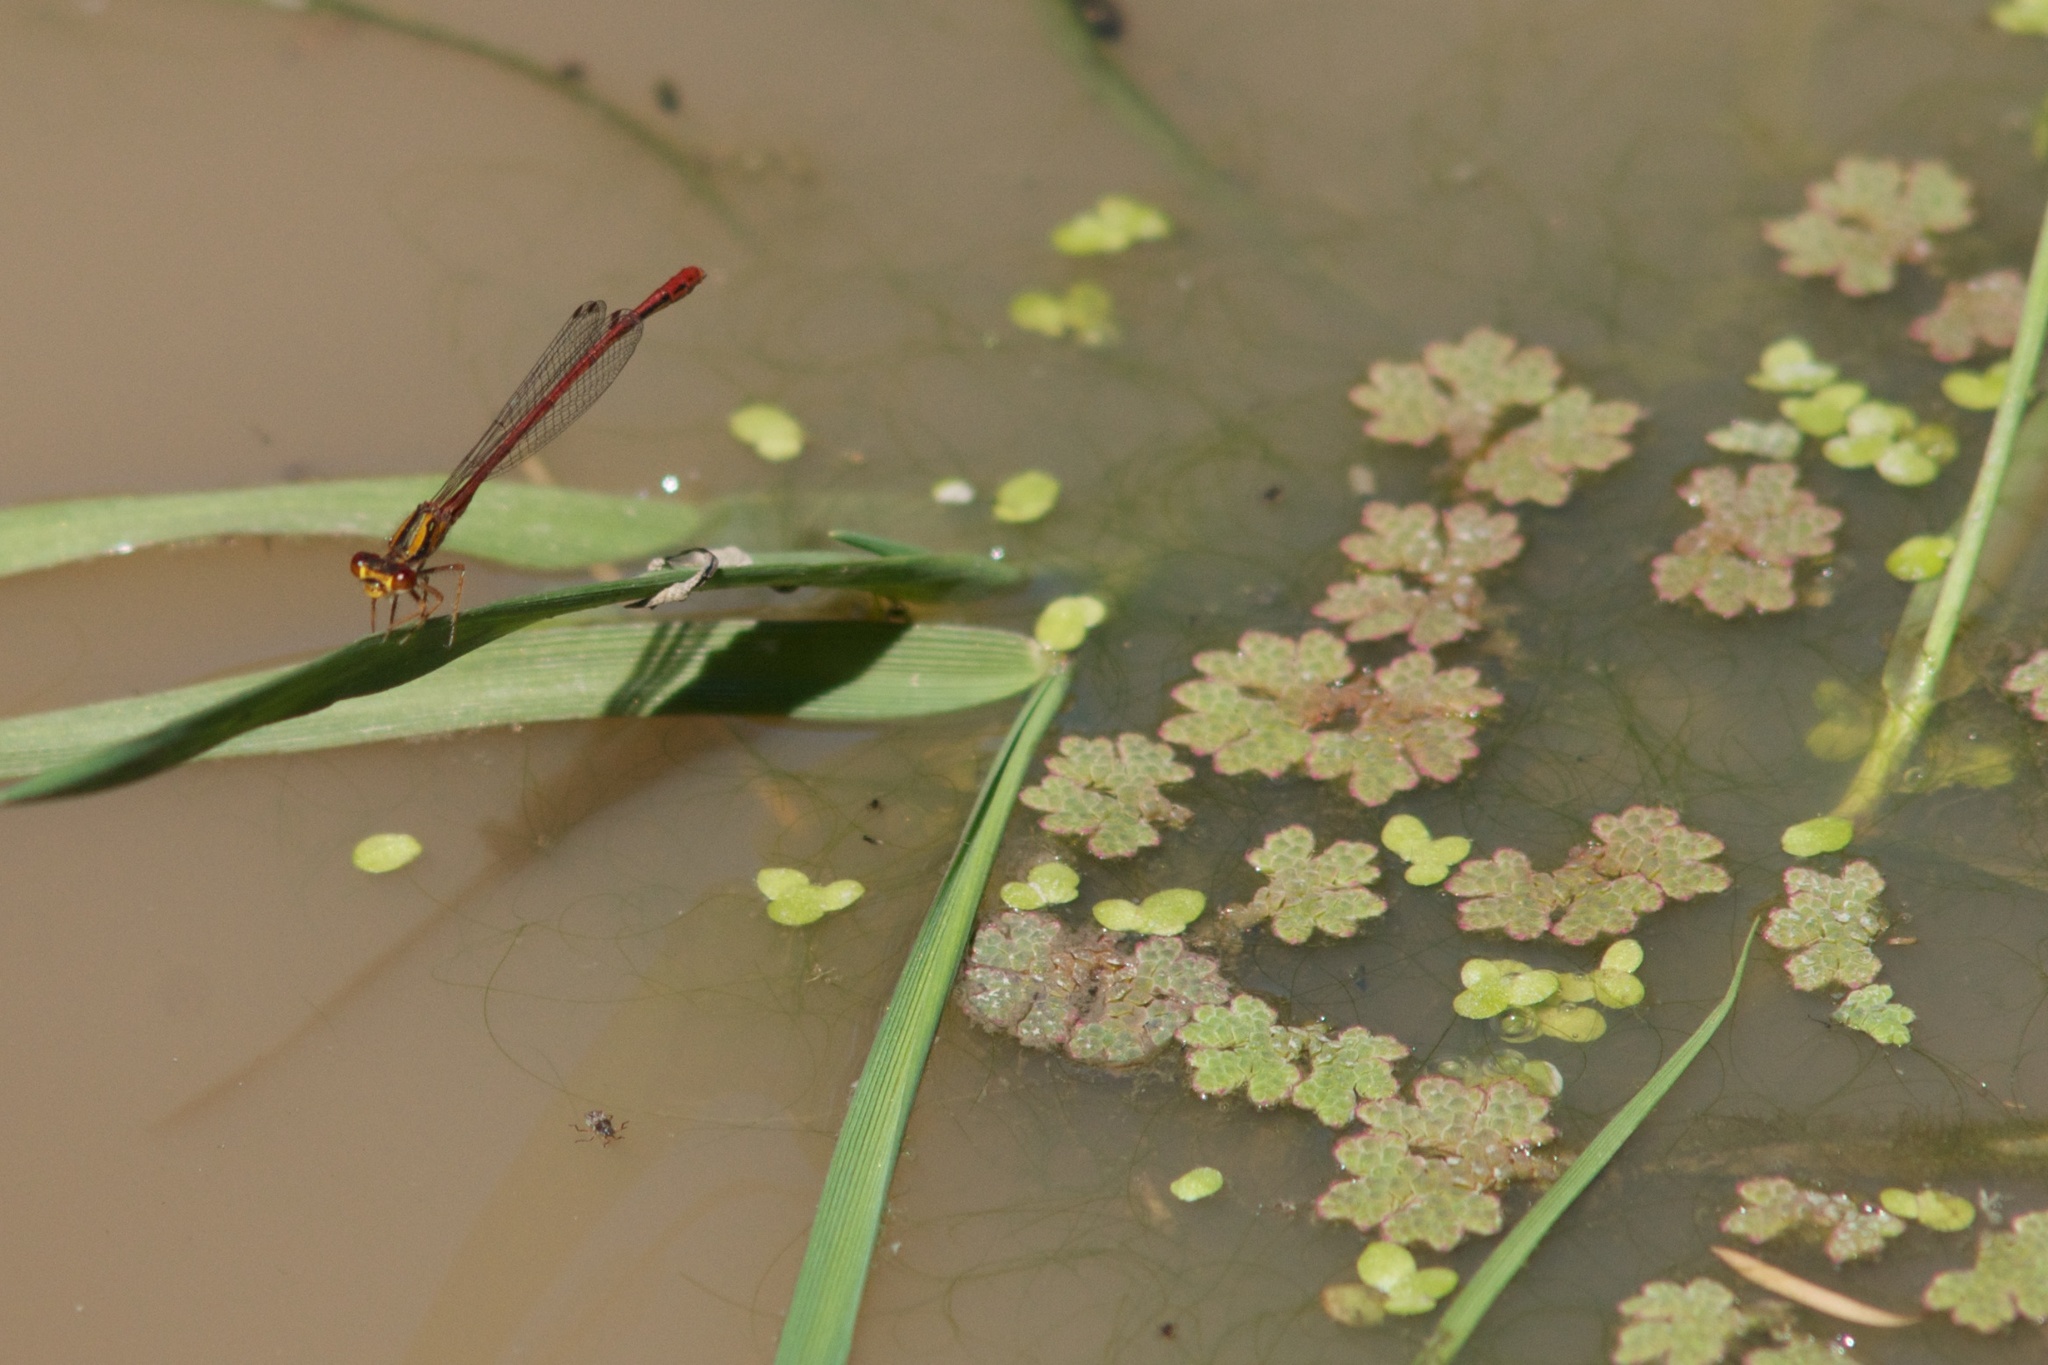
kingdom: Animalia
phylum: Arthropoda
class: Insecta
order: Odonata
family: Coenagrionidae
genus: Xanthocnemis
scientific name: Xanthocnemis zealandica
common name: Common redcoat damselfly
